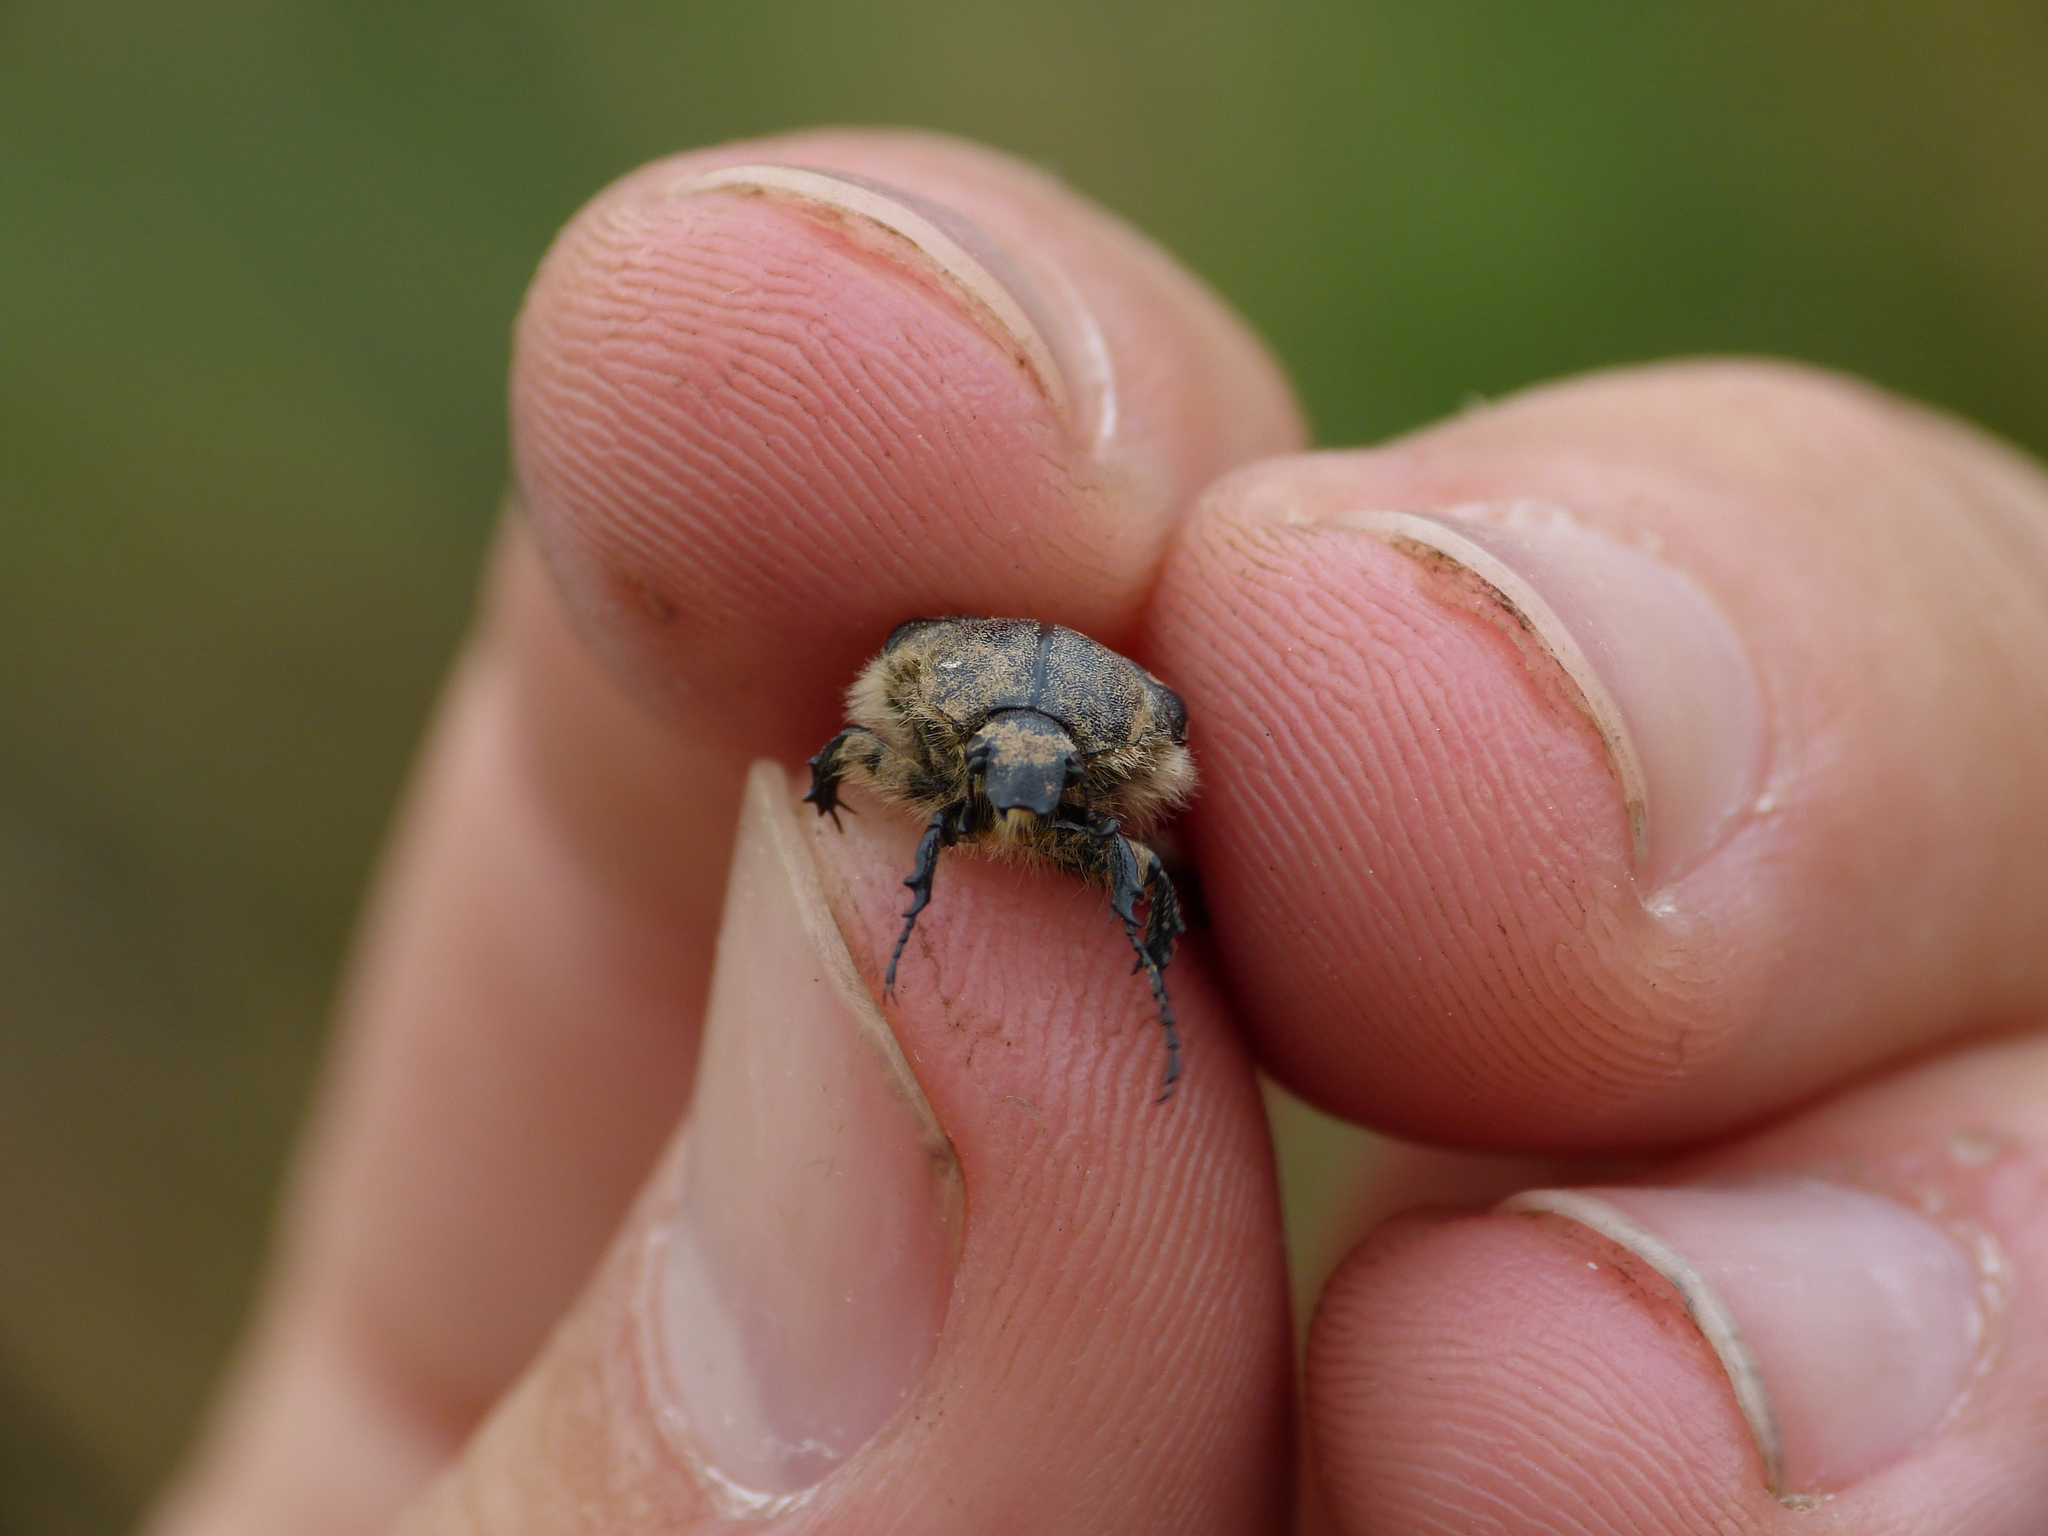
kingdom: Animalia
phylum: Arthropoda
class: Insecta
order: Coleoptera
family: Scarabaeidae
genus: Tropinota
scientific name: Tropinota hirta
